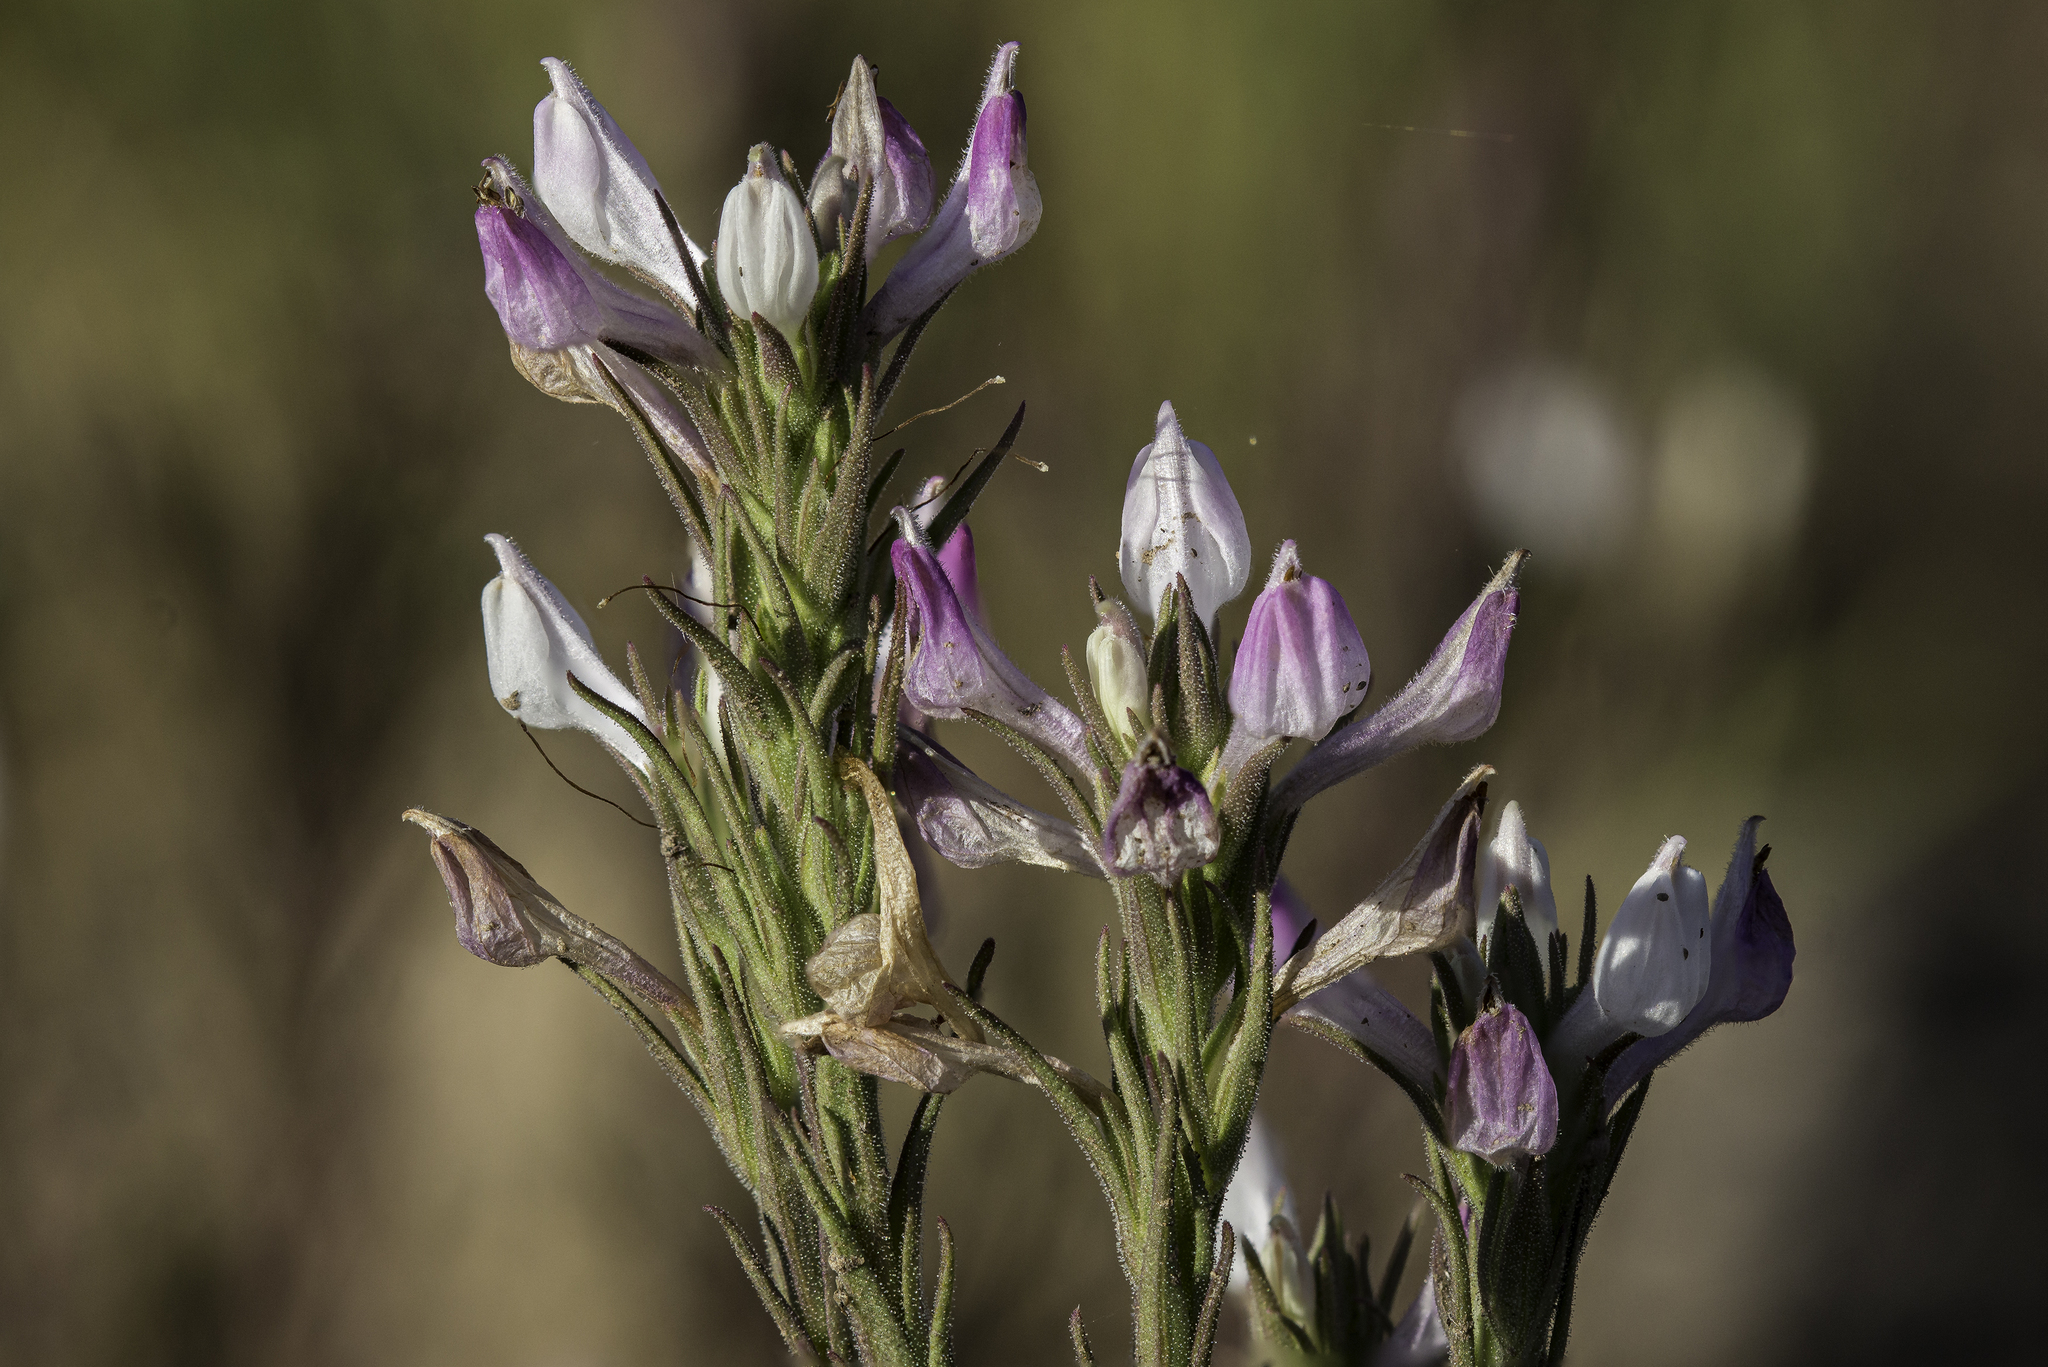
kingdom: Plantae
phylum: Tracheophyta
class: Magnoliopsida
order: Lamiales
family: Orobanchaceae
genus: Orthocarpus
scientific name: Orthocarpus purpureoalbus
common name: Violet owl-clover
